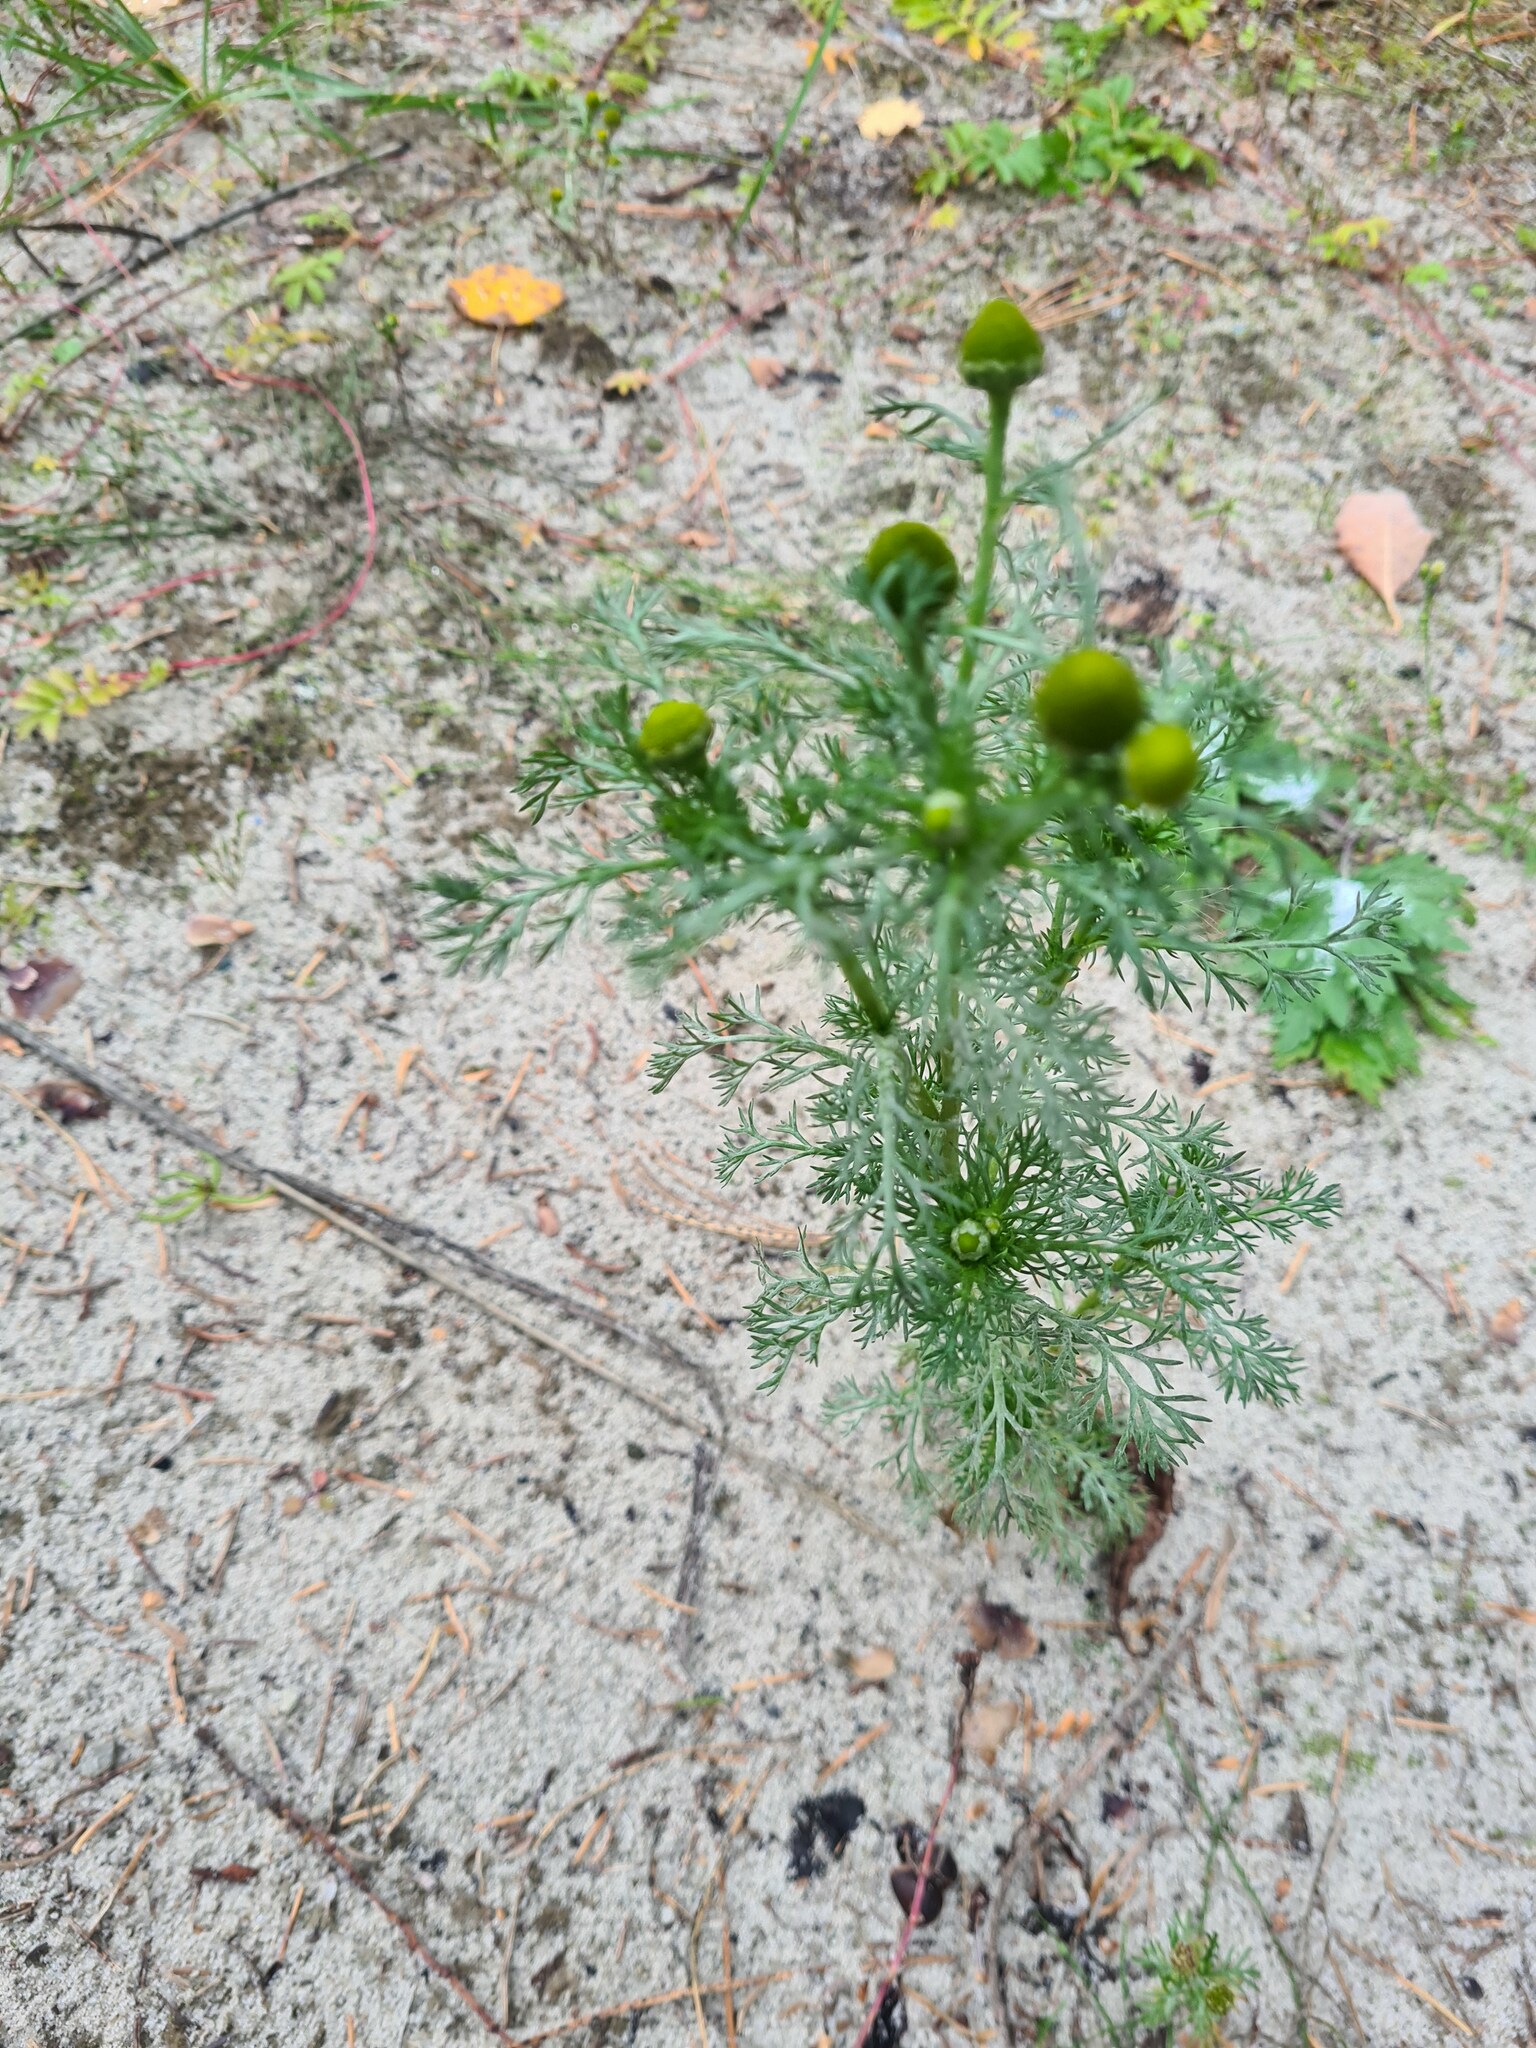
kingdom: Plantae
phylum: Tracheophyta
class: Magnoliopsida
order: Asterales
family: Asteraceae
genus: Matricaria
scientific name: Matricaria discoidea
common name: Disc mayweed
